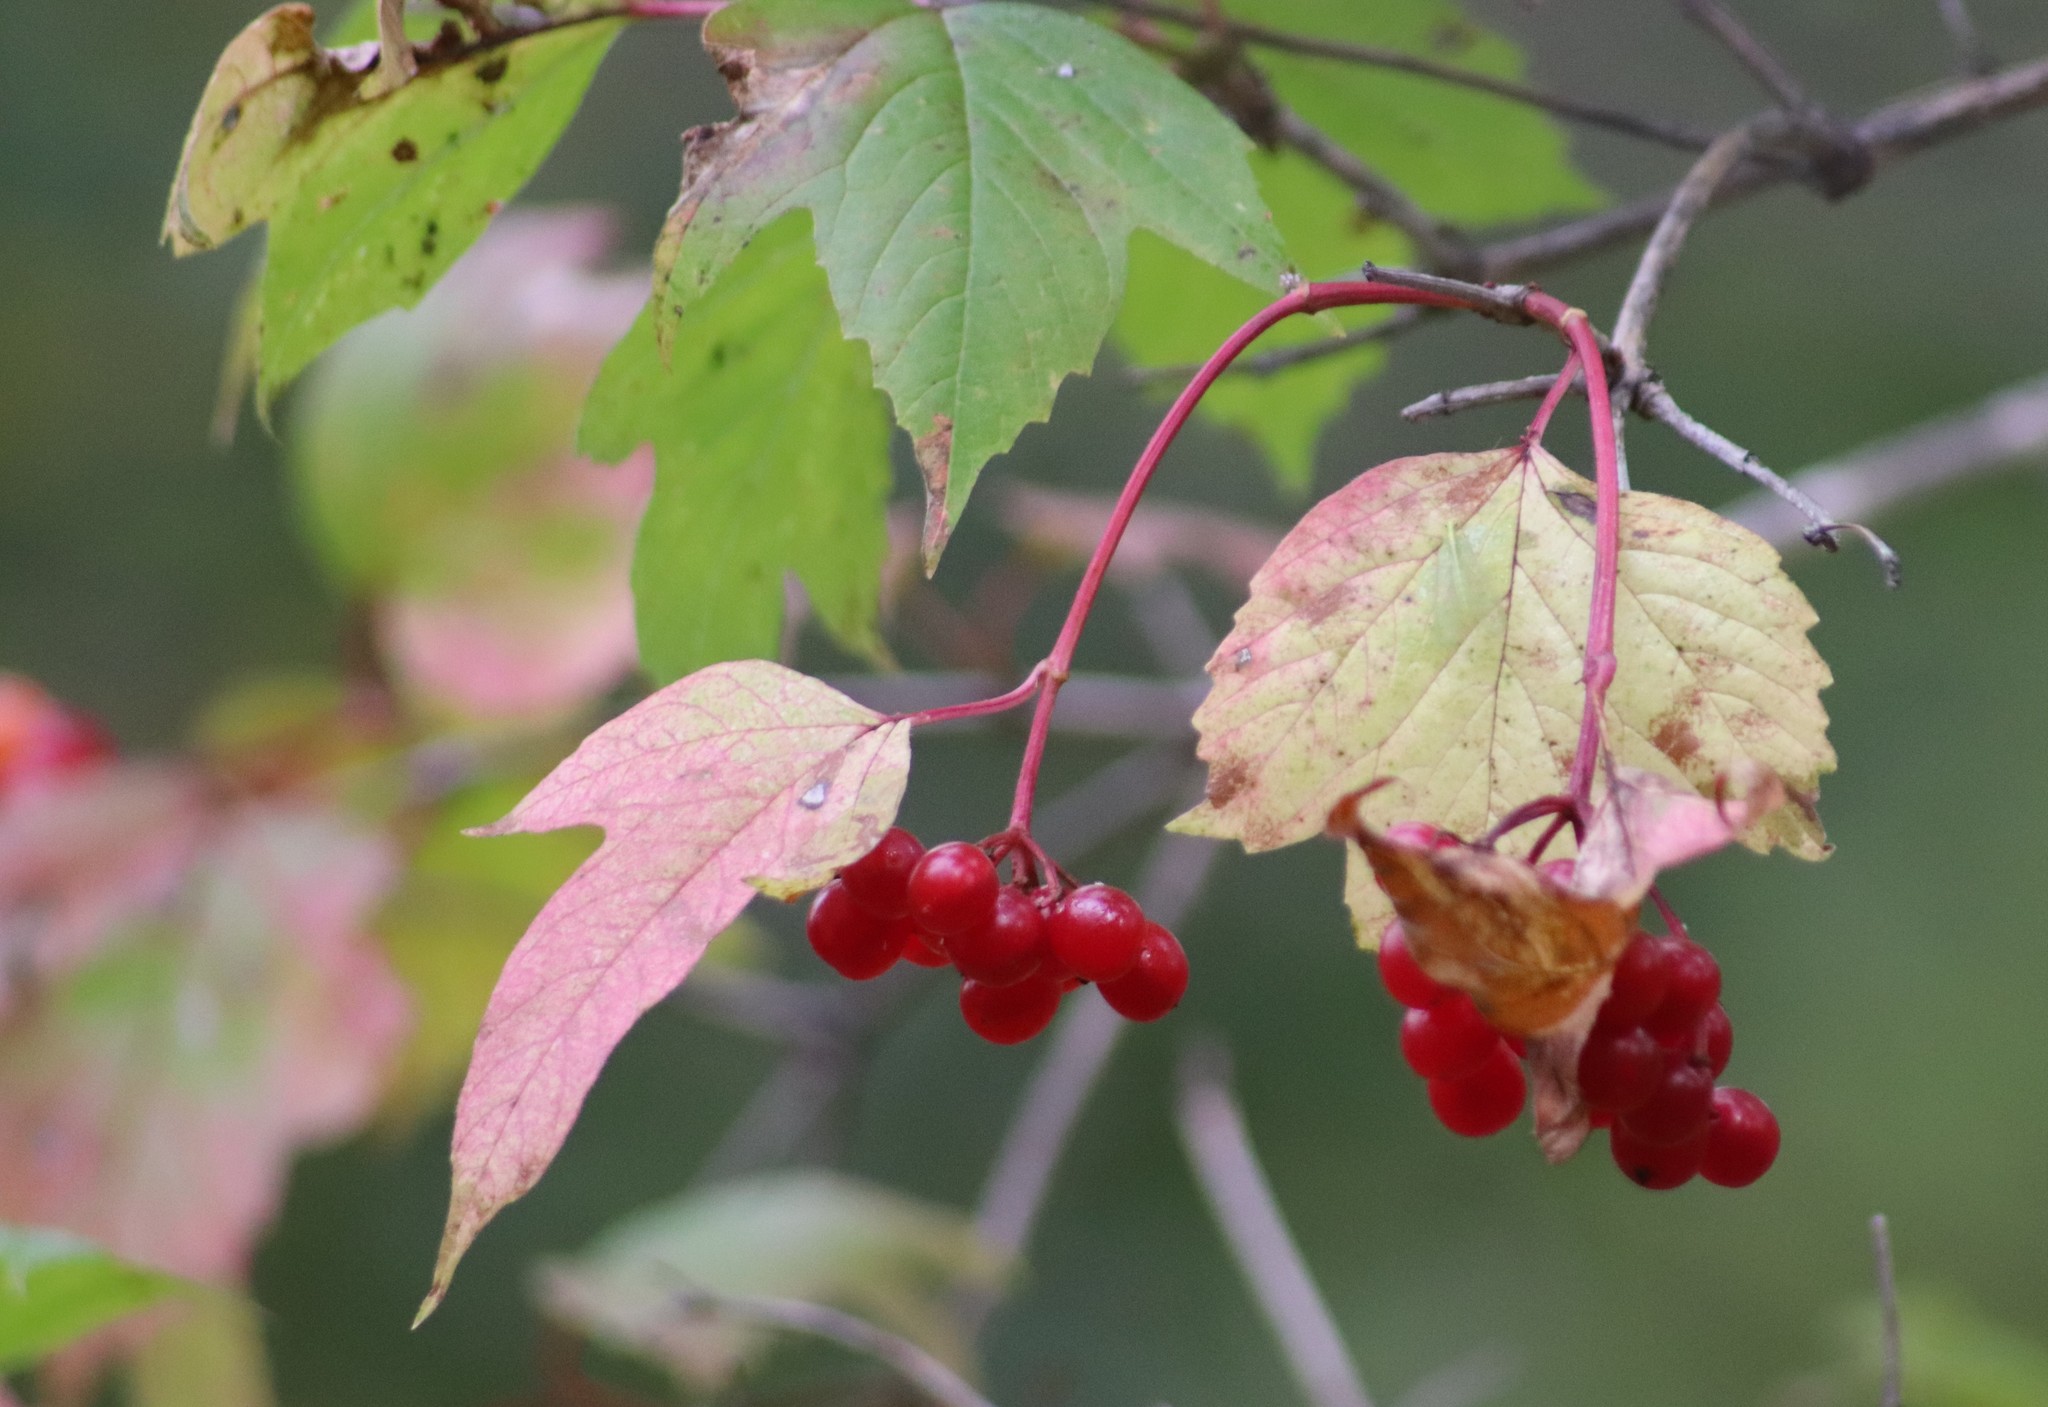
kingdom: Plantae
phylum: Tracheophyta
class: Magnoliopsida
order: Dipsacales
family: Viburnaceae
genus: Viburnum
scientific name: Viburnum opulus
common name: Guelder-rose
